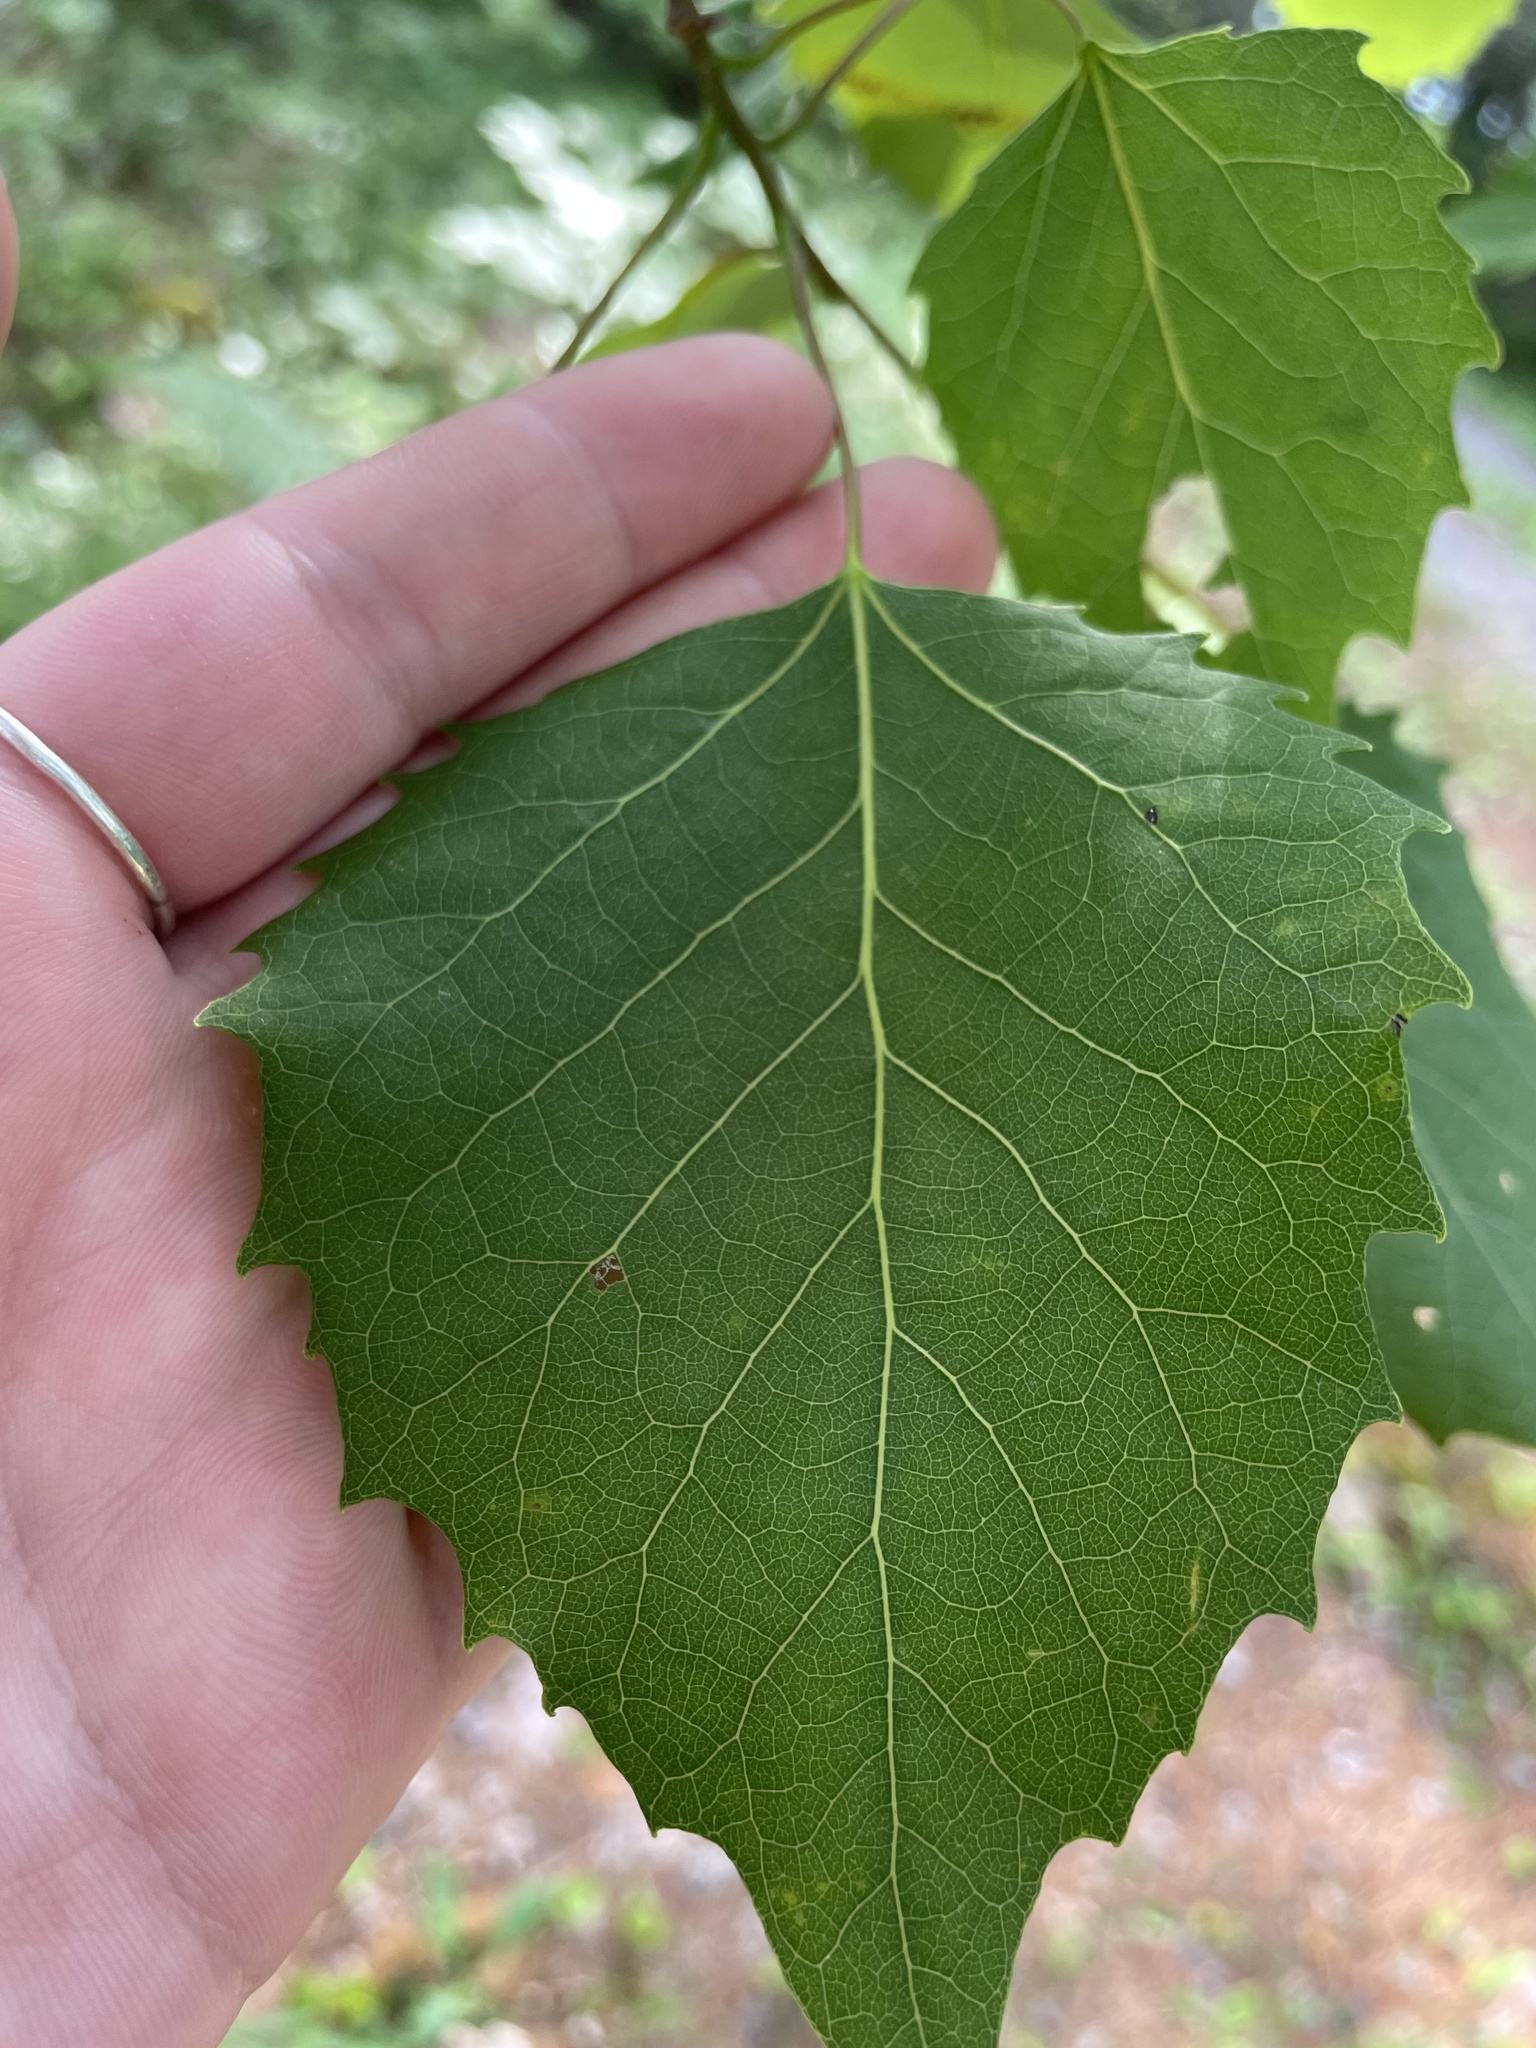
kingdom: Plantae
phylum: Tracheophyta
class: Magnoliopsida
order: Malpighiales
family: Salicaceae
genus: Populus
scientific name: Populus grandidentata
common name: Bigtooth aspen
